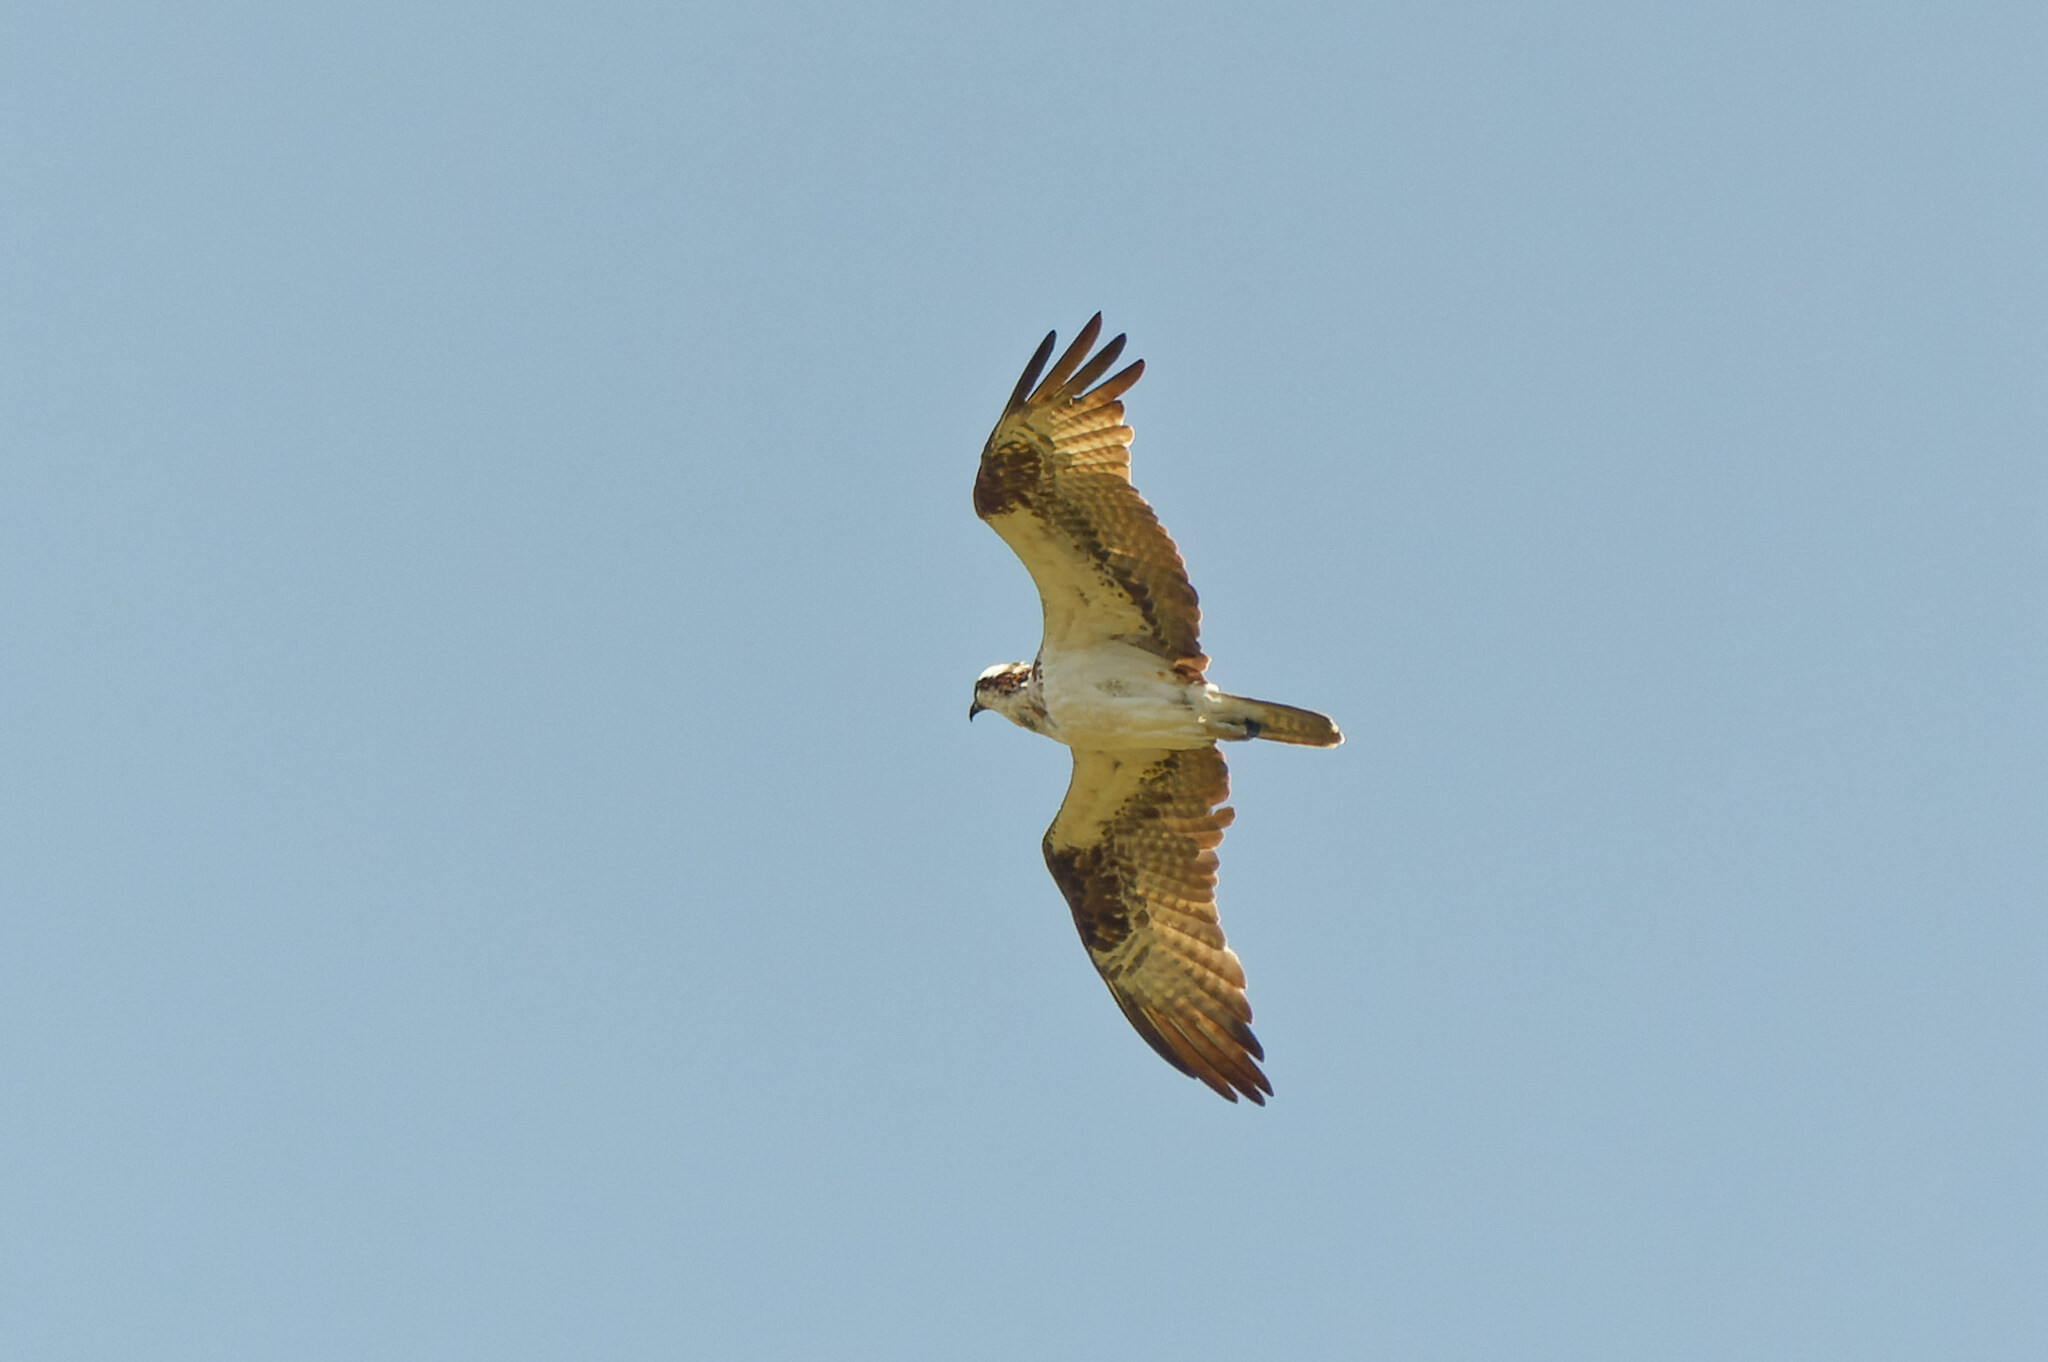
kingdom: Animalia
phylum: Chordata
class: Aves
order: Accipitriformes
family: Pandionidae
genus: Pandion
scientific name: Pandion haliaetus
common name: Osprey
